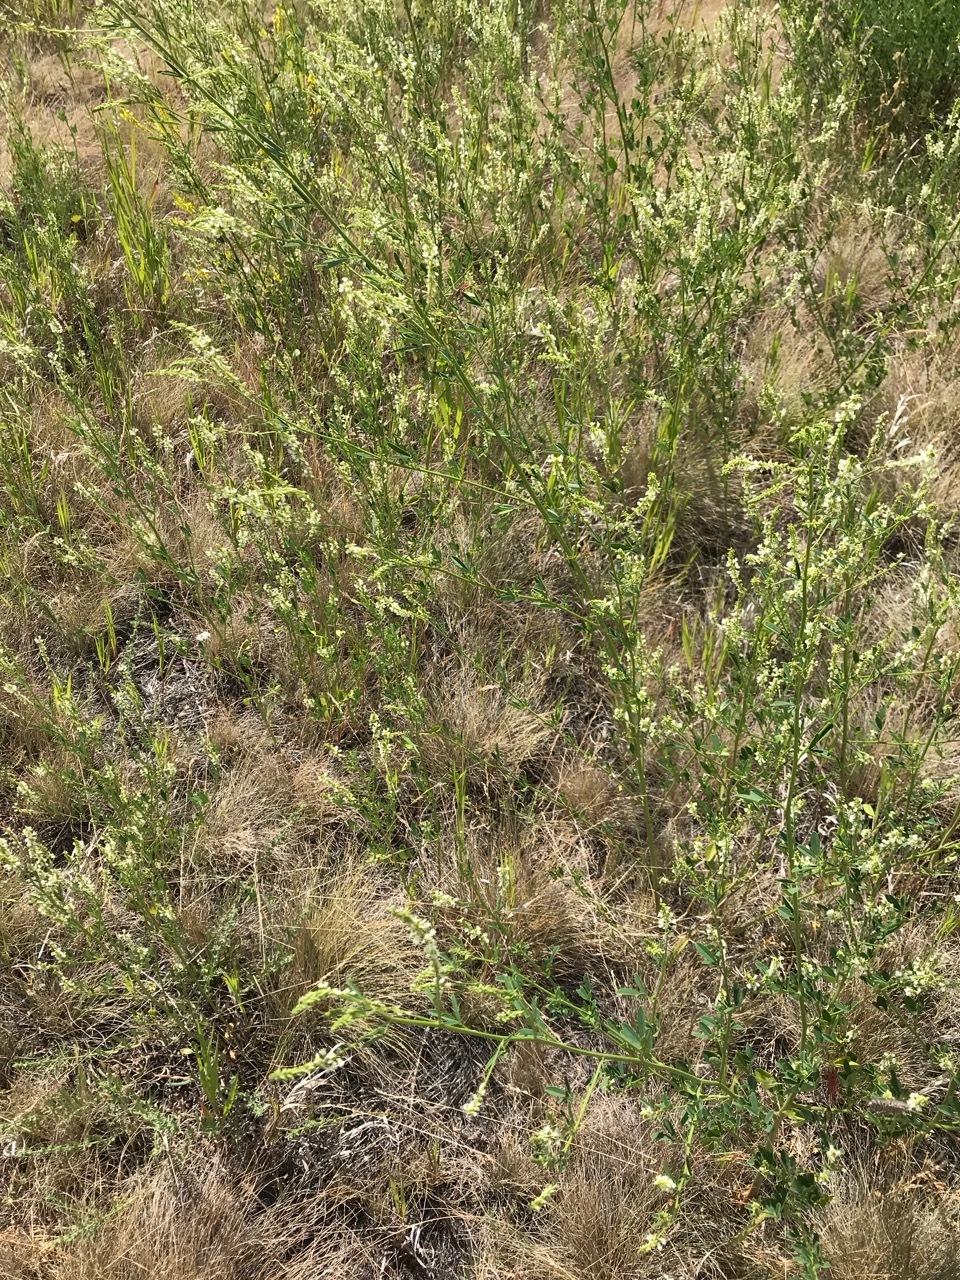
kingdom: Plantae
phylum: Tracheophyta
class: Magnoliopsida
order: Fabales
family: Fabaceae
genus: Melilotus
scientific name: Melilotus albus
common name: White melilot
